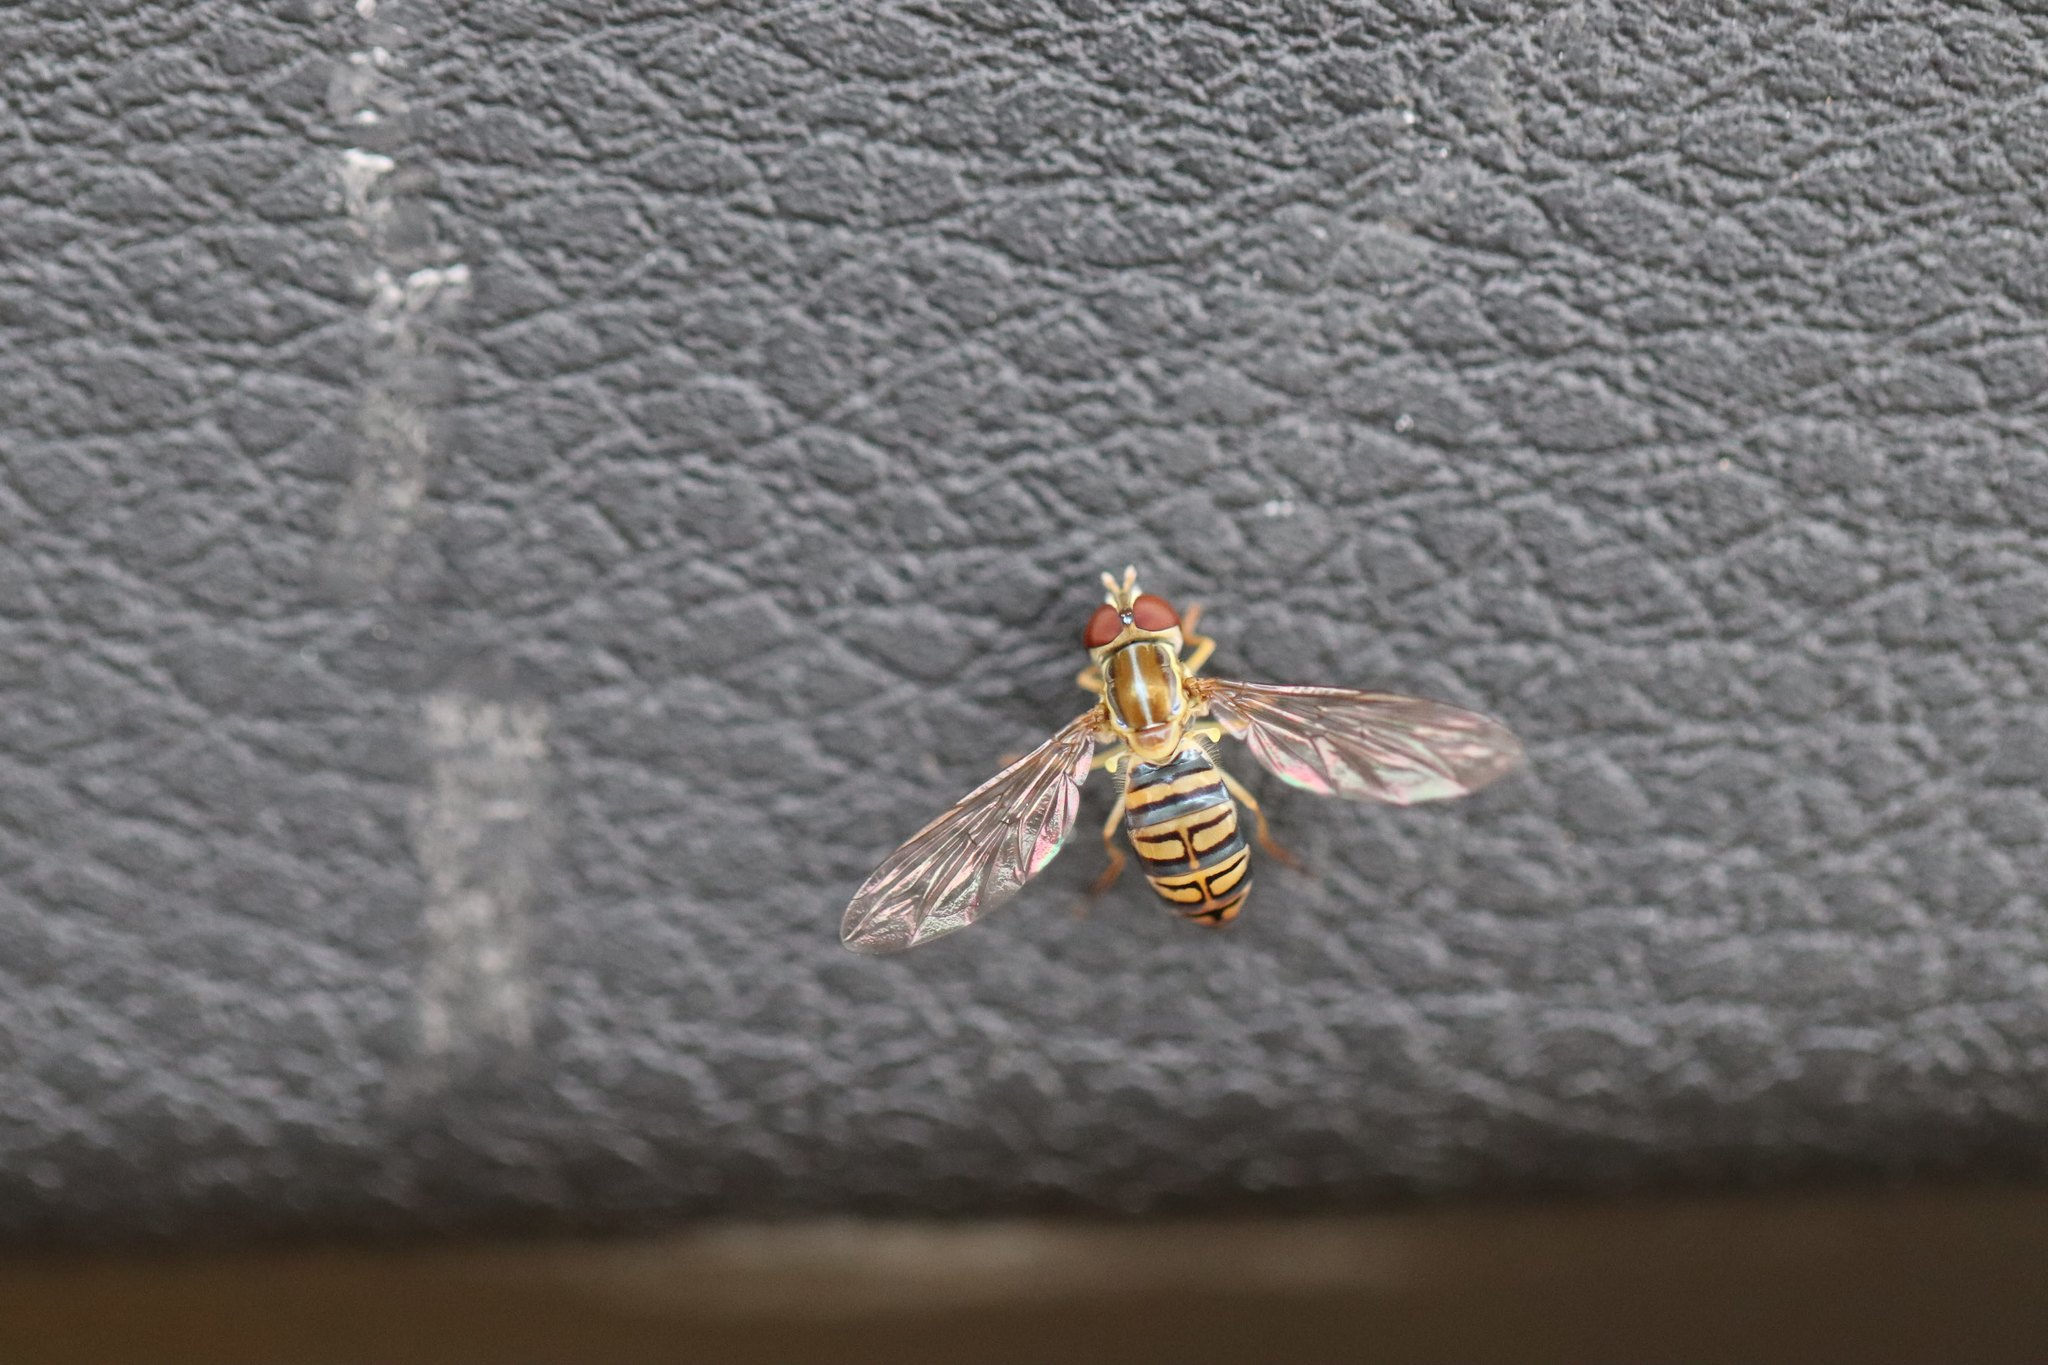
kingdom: Animalia
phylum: Arthropoda
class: Insecta
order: Diptera
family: Syrphidae
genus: Toxomerus
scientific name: Toxomerus politus
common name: Maize calligrapher
